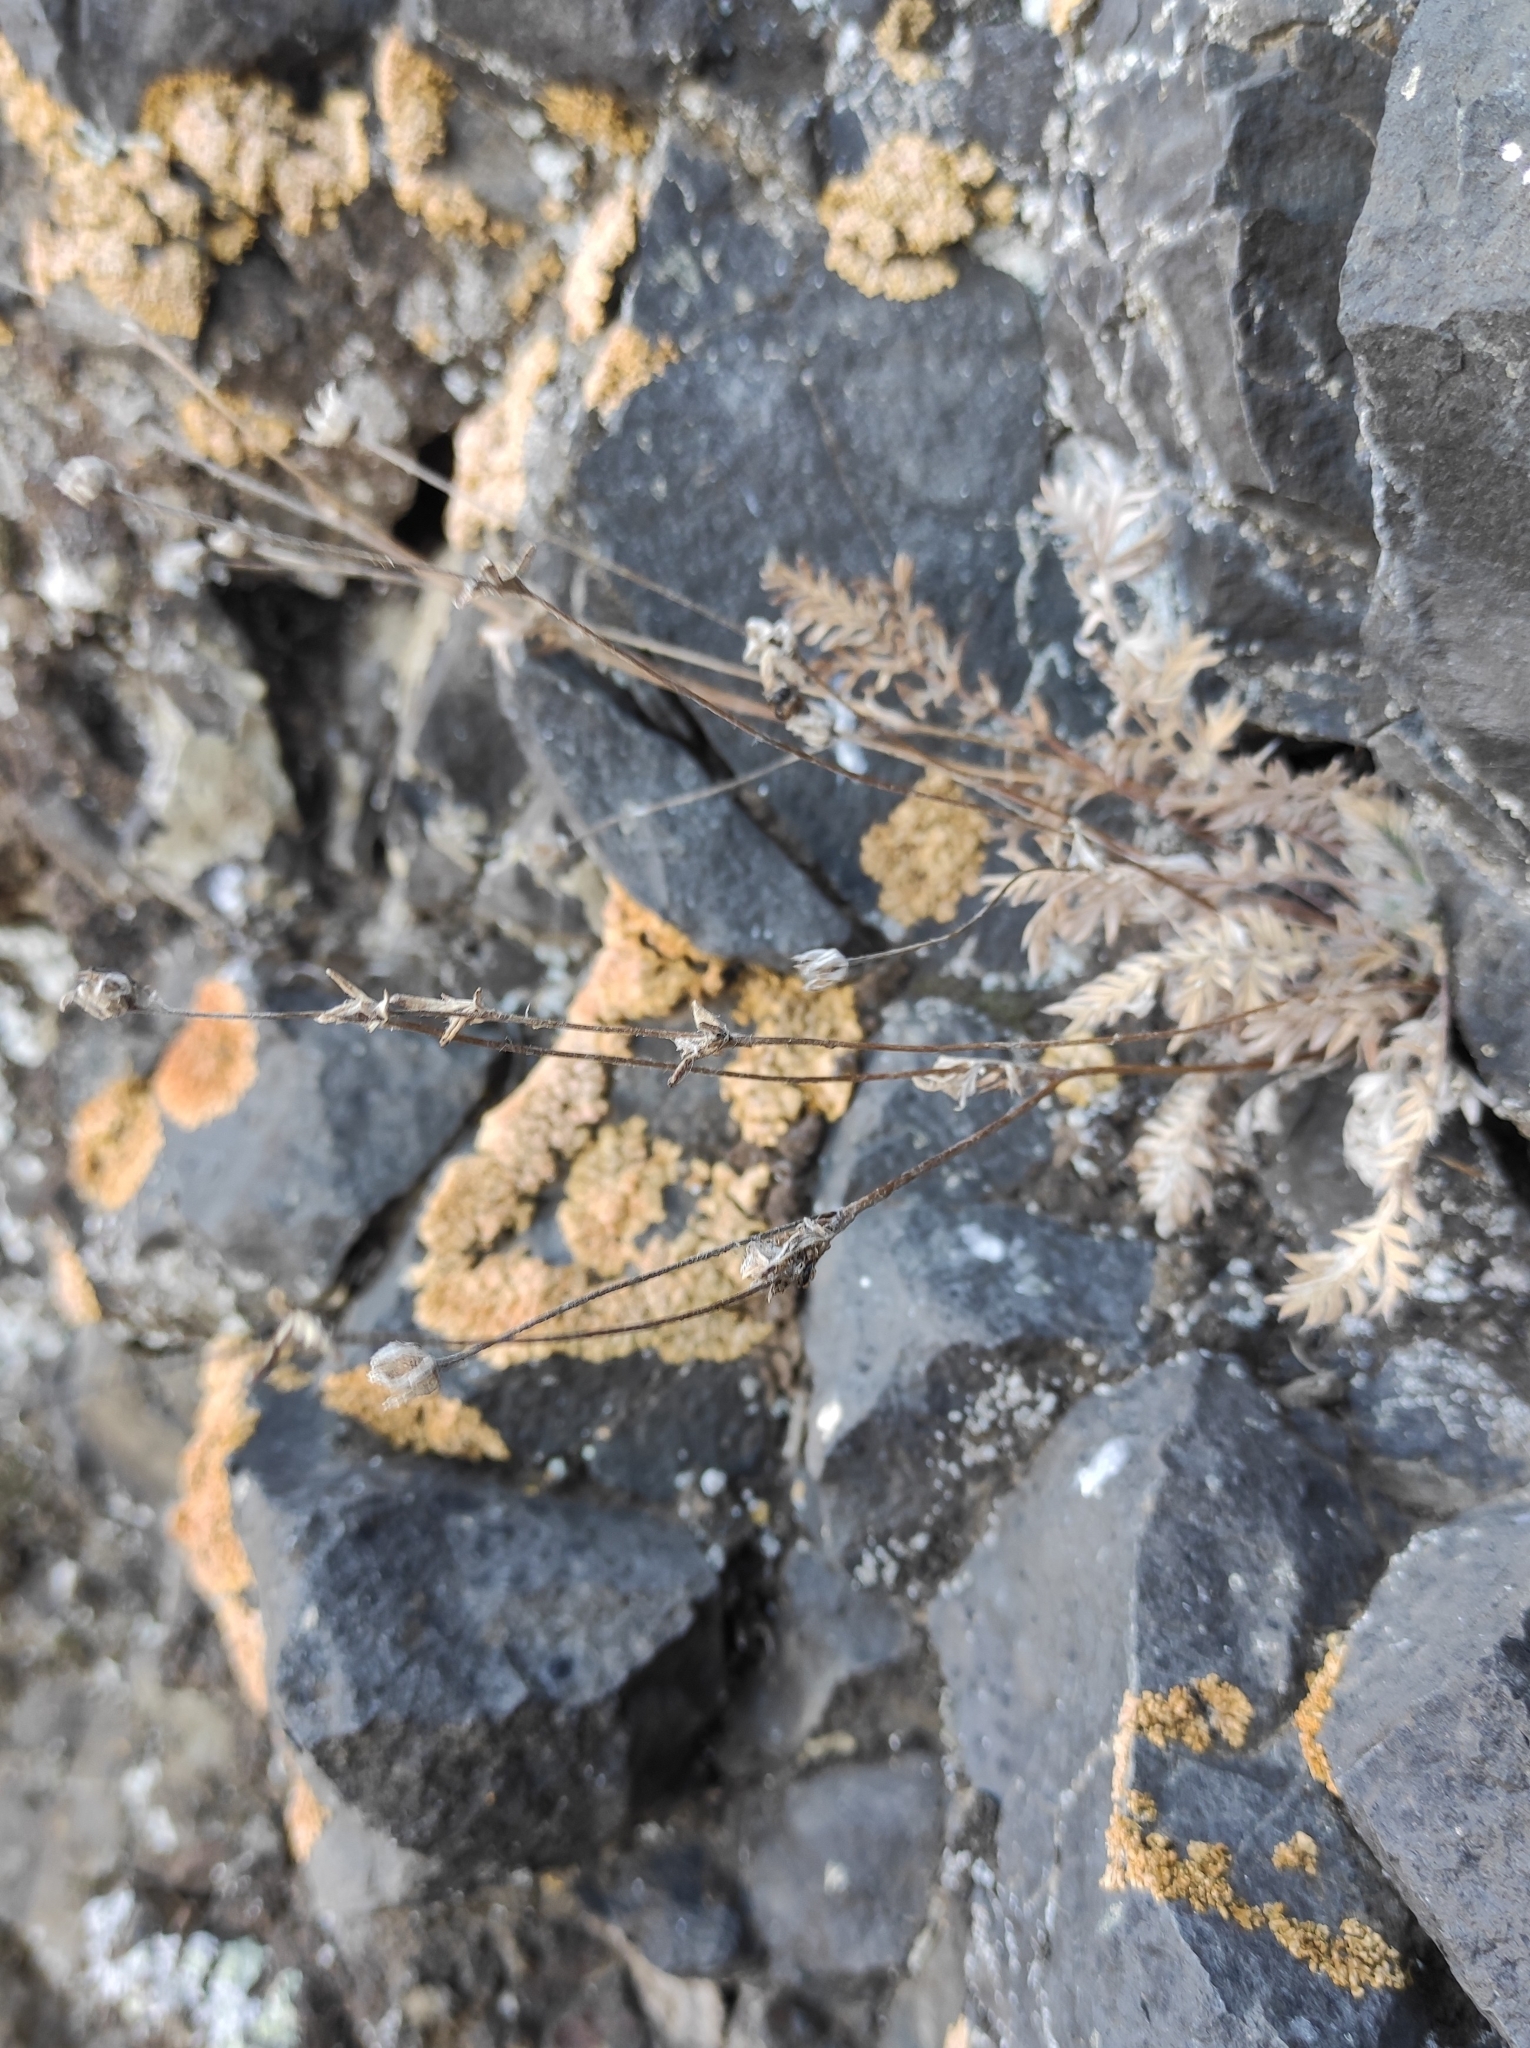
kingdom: Plantae
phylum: Tracheophyta
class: Magnoliopsida
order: Rosales
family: Rosaceae
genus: Potentilla
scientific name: Potentilla sericea
